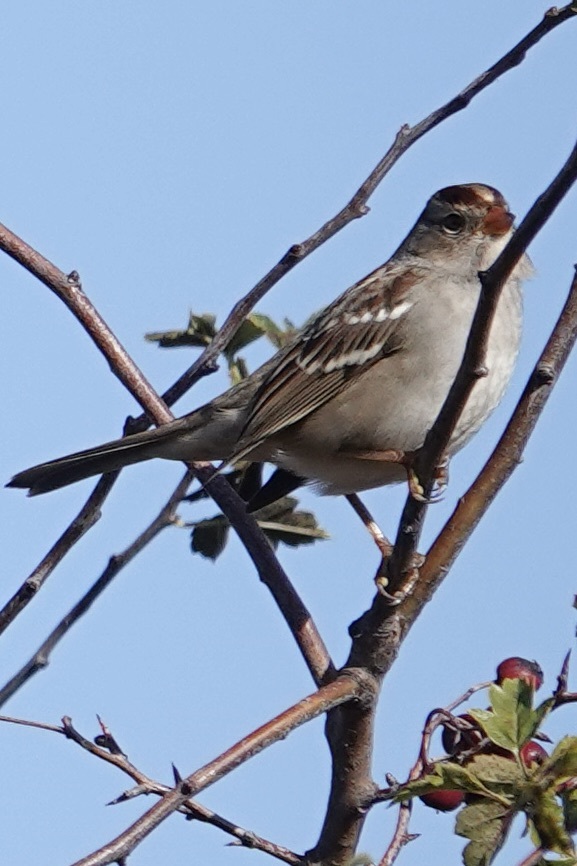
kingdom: Animalia
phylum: Chordata
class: Aves
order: Passeriformes
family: Passerellidae
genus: Zonotrichia
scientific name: Zonotrichia leucophrys
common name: White-crowned sparrow
